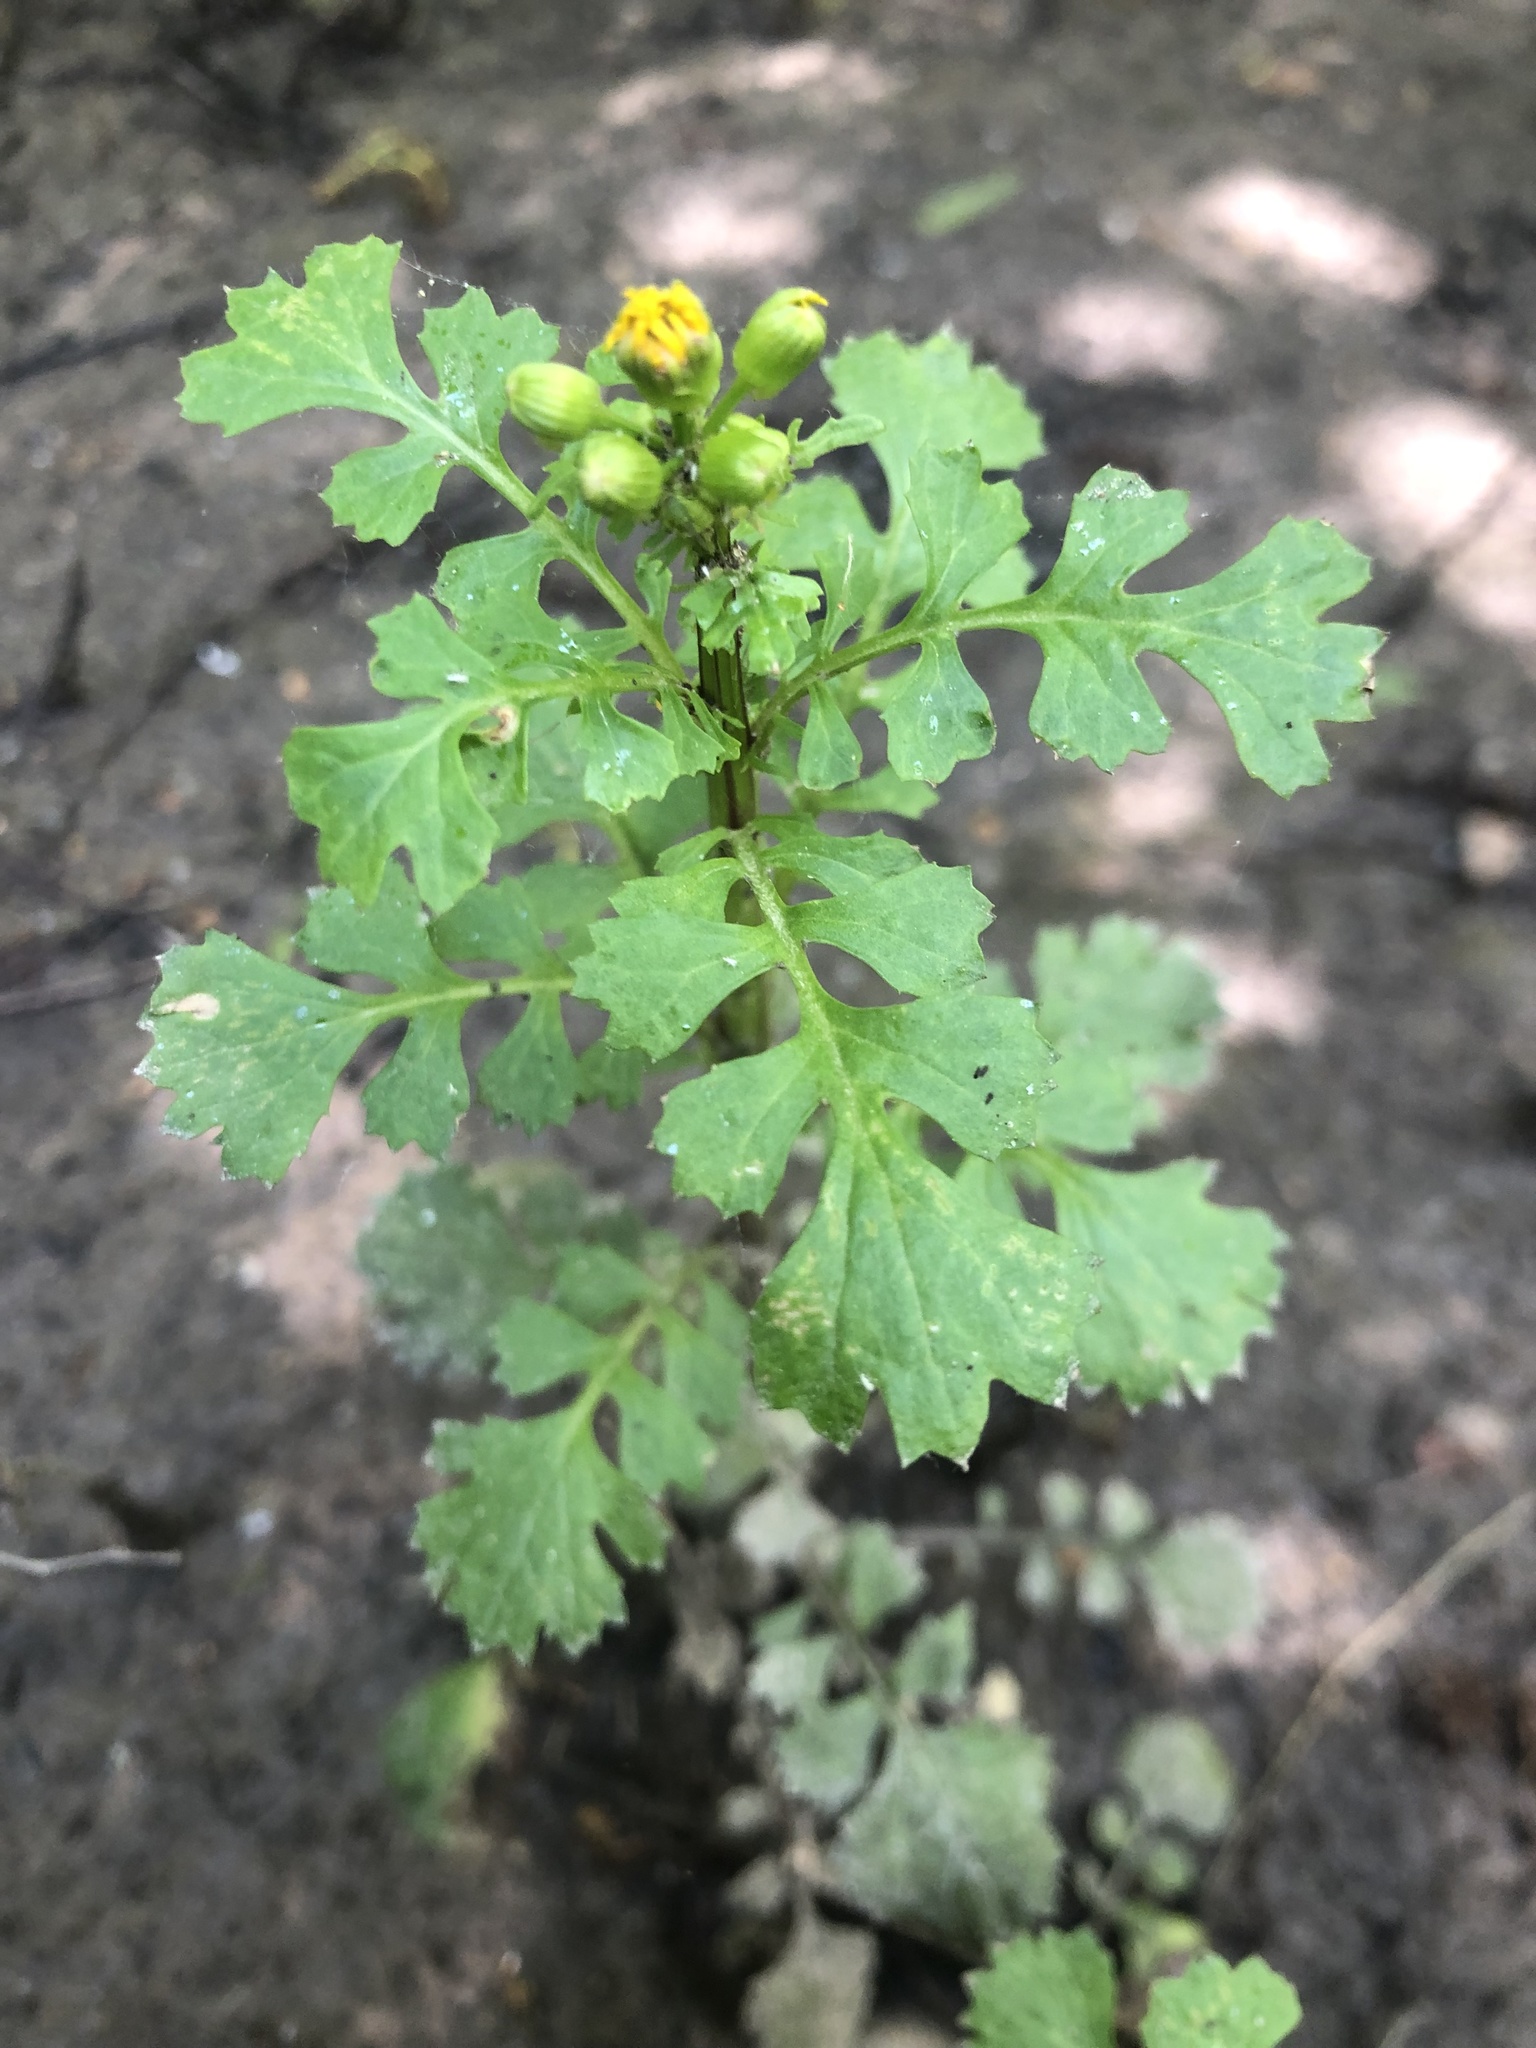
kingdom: Plantae
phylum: Tracheophyta
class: Magnoliopsida
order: Asterales
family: Asteraceae
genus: Packera
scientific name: Packera glabella
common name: Butterweed
